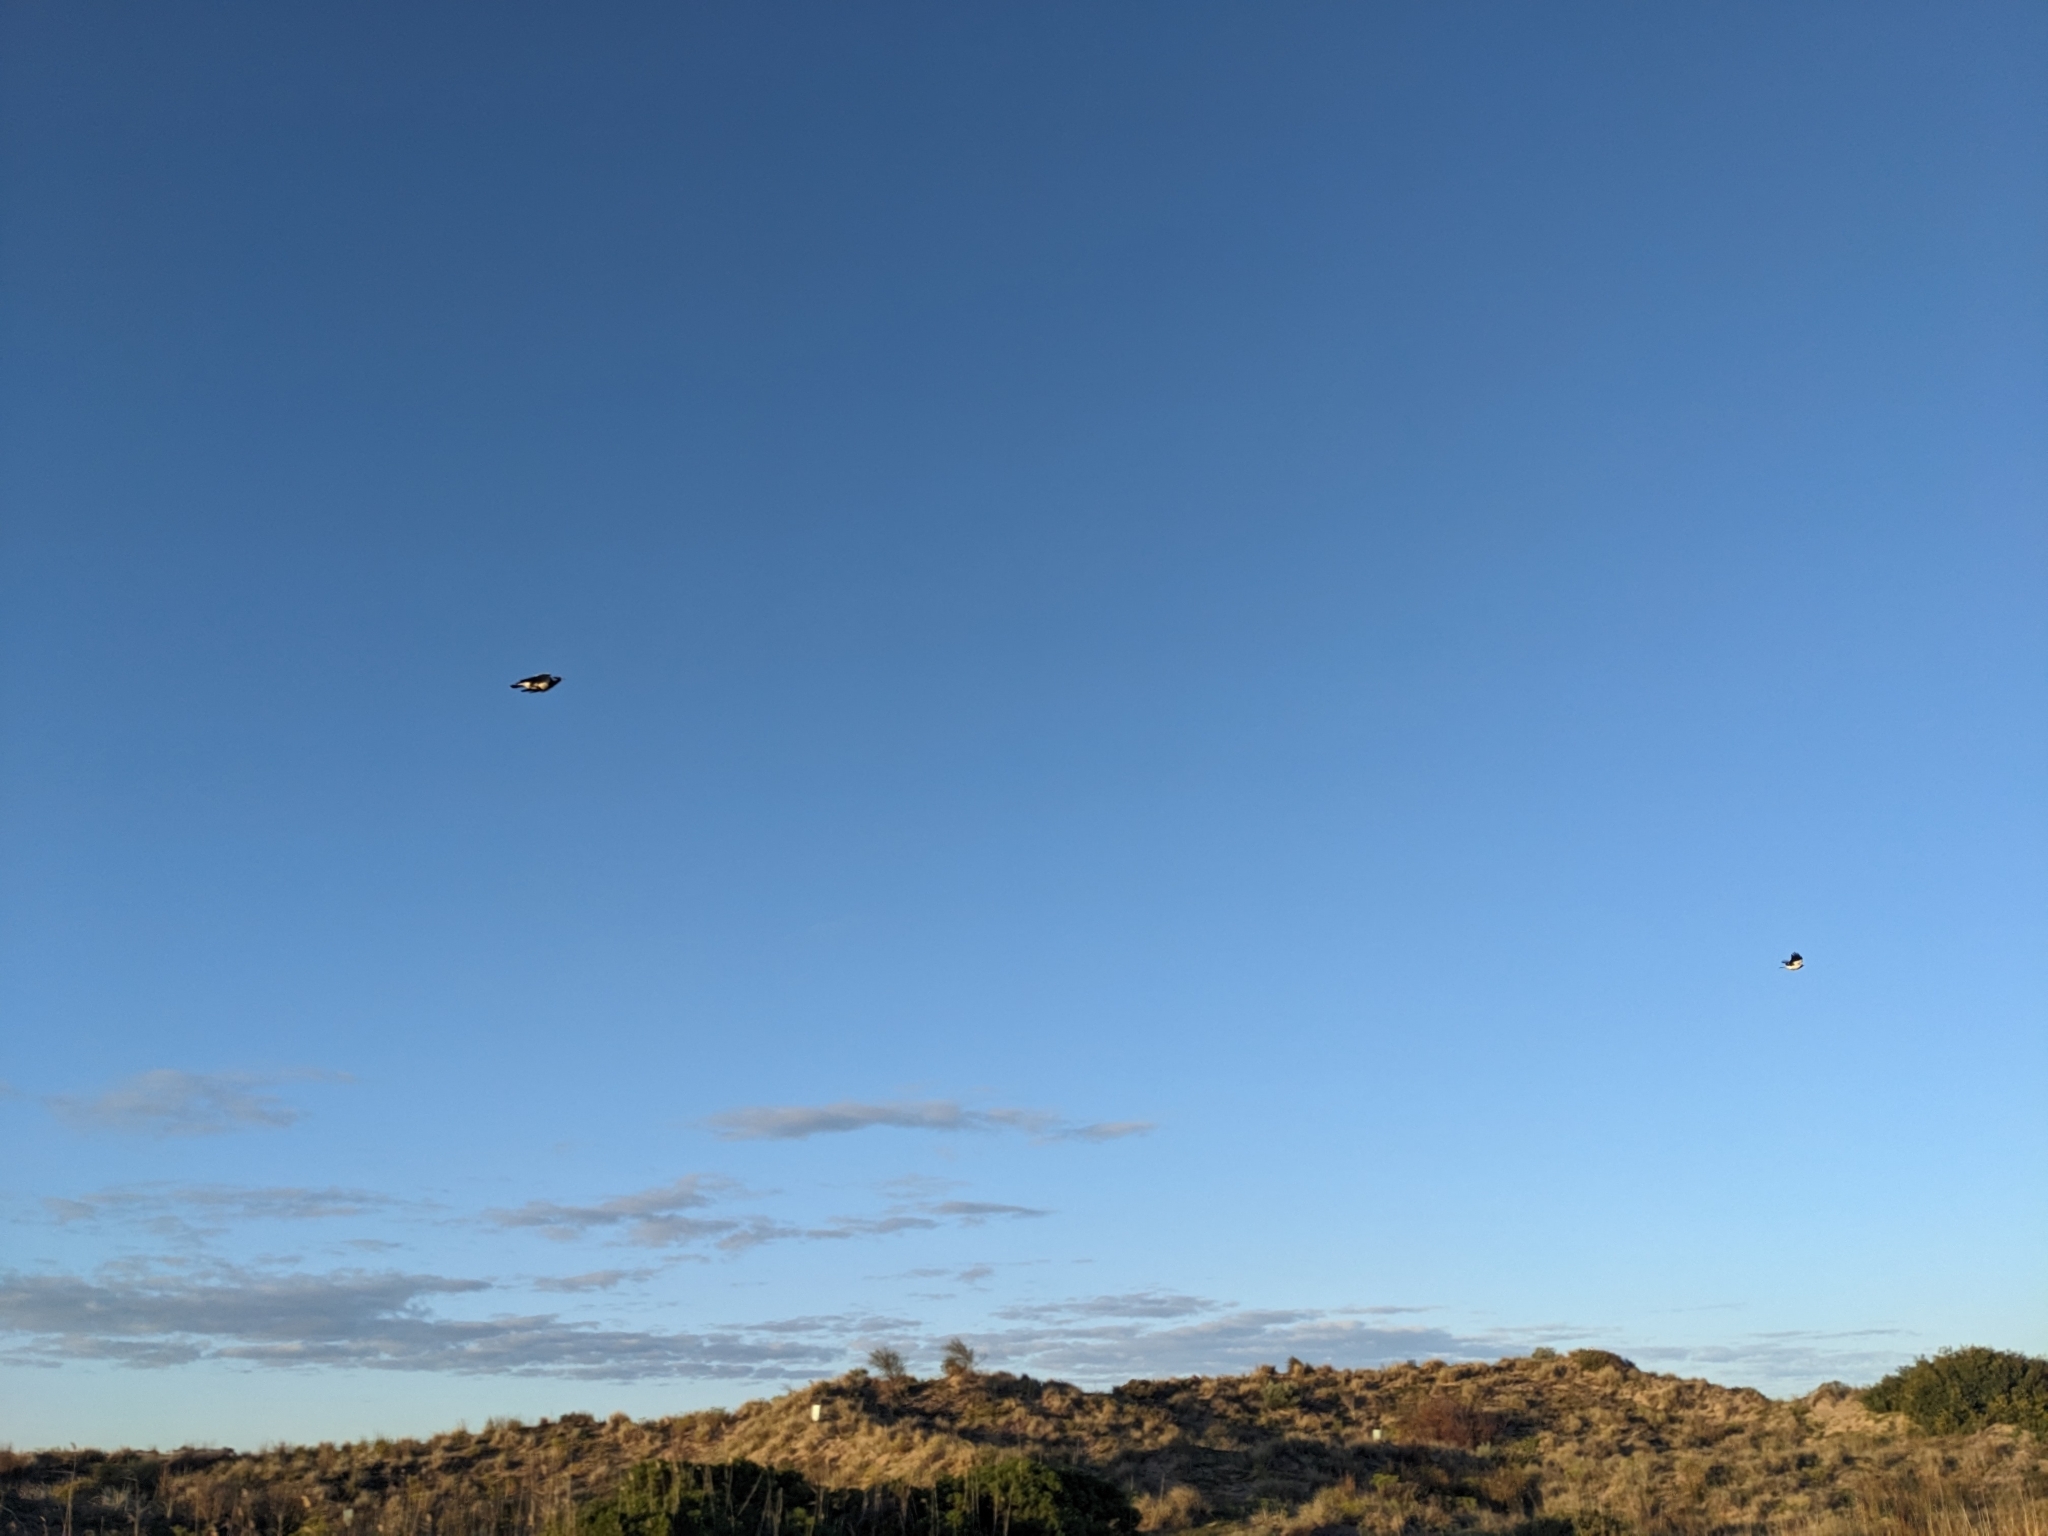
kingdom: Animalia
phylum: Chordata
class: Aves
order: Passeriformes
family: Monarchidae
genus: Grallina
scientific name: Grallina cyanoleuca
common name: Magpie-lark
